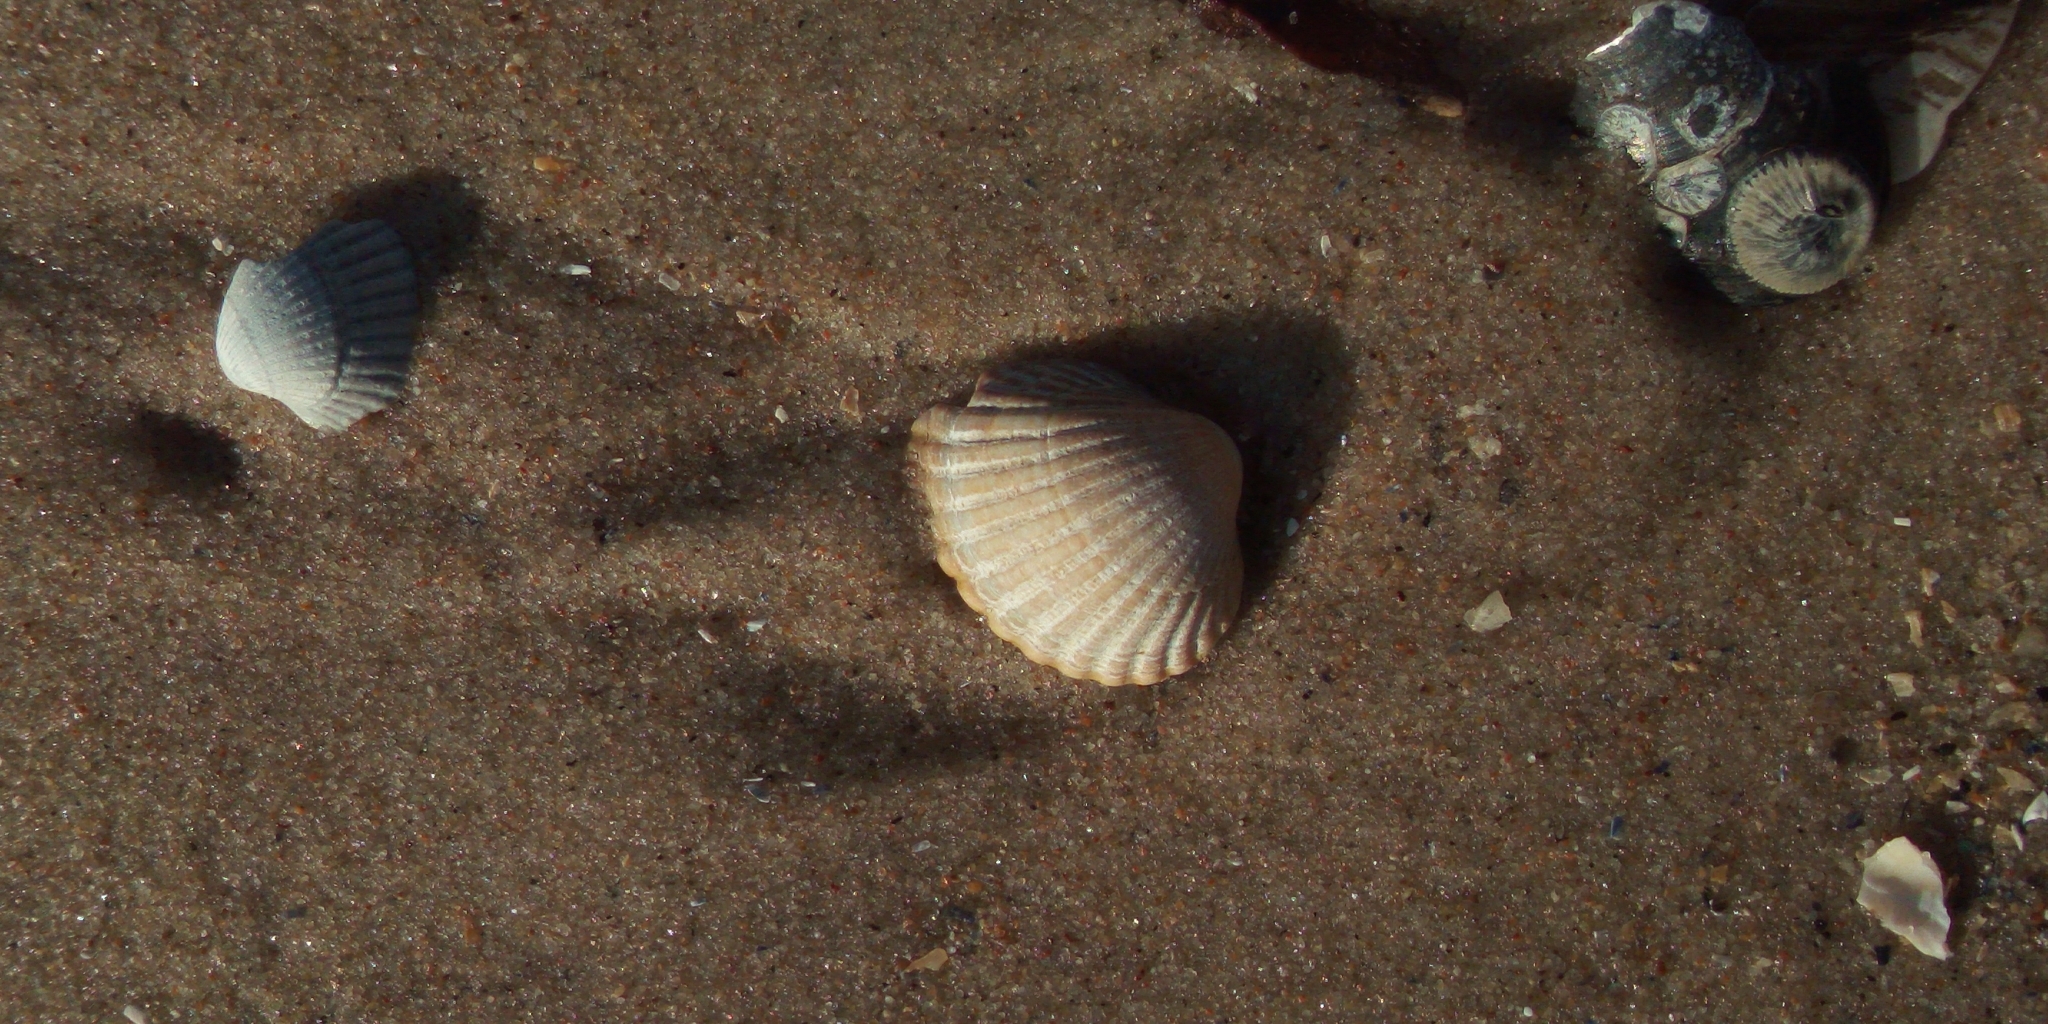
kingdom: Animalia
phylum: Mollusca
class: Bivalvia
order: Cardiida
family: Cardiidae
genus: Cerastoderma
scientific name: Cerastoderma glaucum
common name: Lagoon cockle
